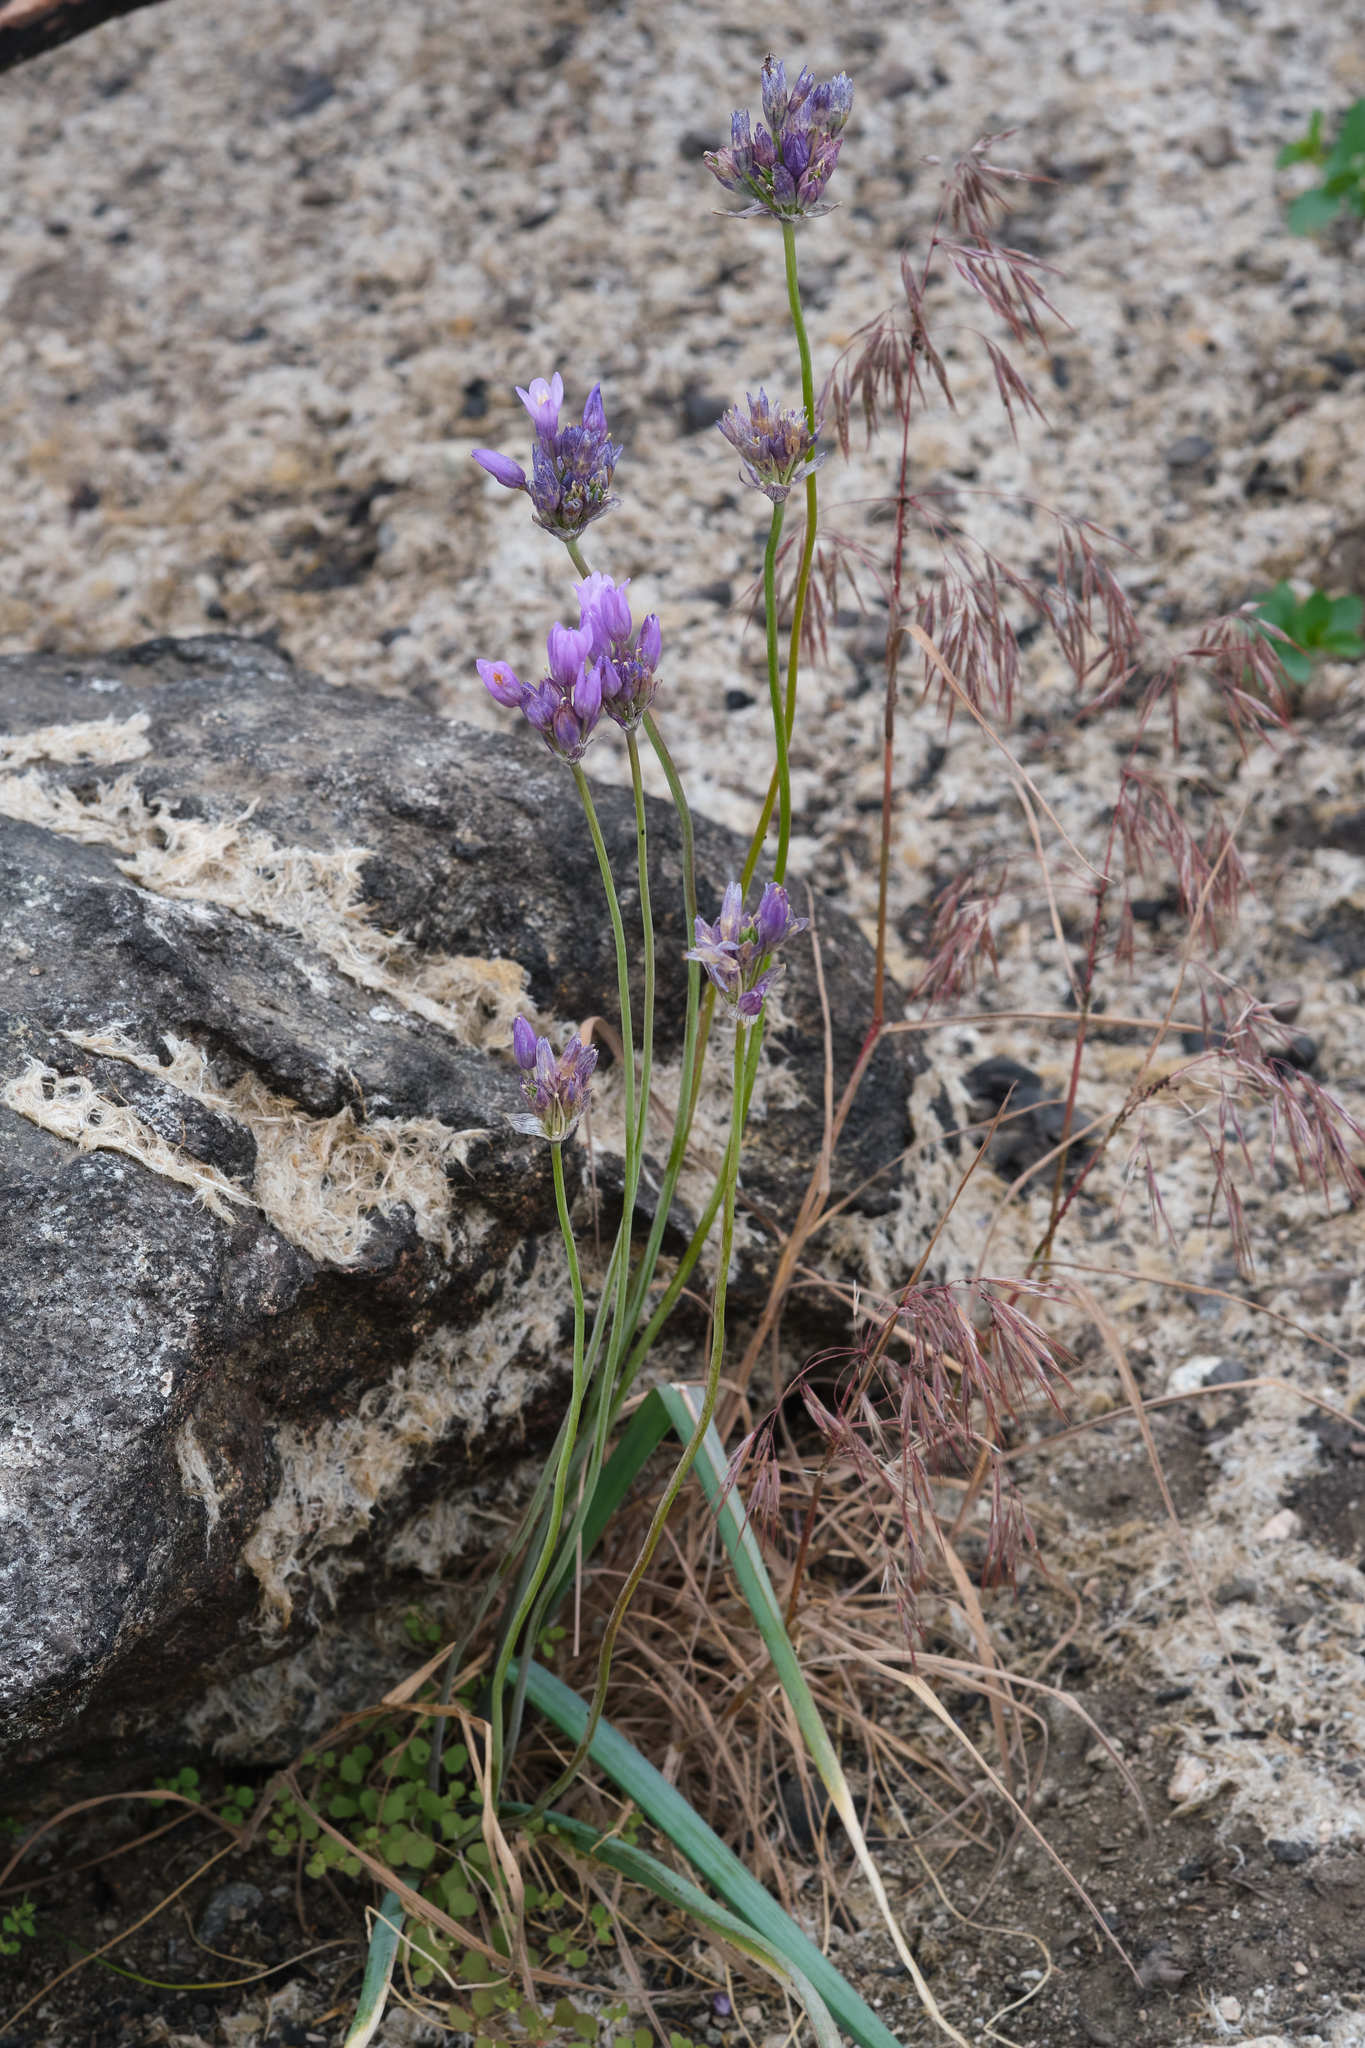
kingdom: Plantae
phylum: Tracheophyta
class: Liliopsida
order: Asparagales
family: Asparagaceae
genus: Dipterostemon
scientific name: Dipterostemon capitatus
